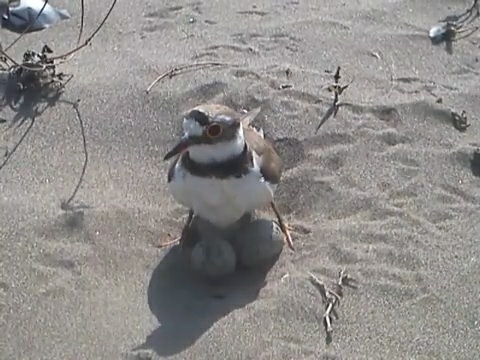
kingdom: Animalia
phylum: Chordata
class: Aves
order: Charadriiformes
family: Charadriidae
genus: Charadrius
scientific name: Charadrius dubius
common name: Little ringed plover
